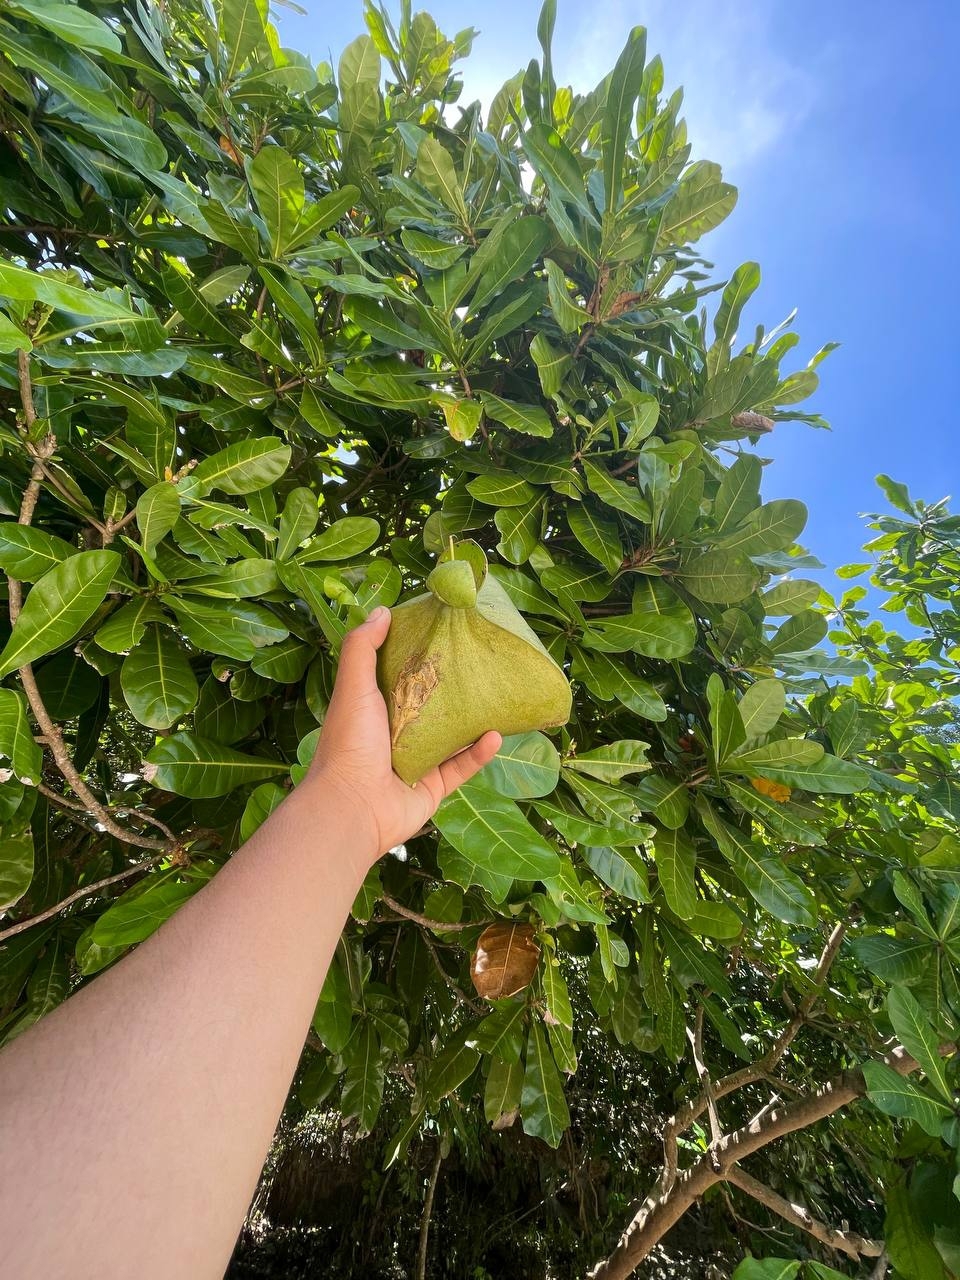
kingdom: Plantae
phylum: Tracheophyta
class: Magnoliopsida
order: Ericales
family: Lecythidaceae
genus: Barringtonia
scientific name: Barringtonia asiatica
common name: Mango-pine
